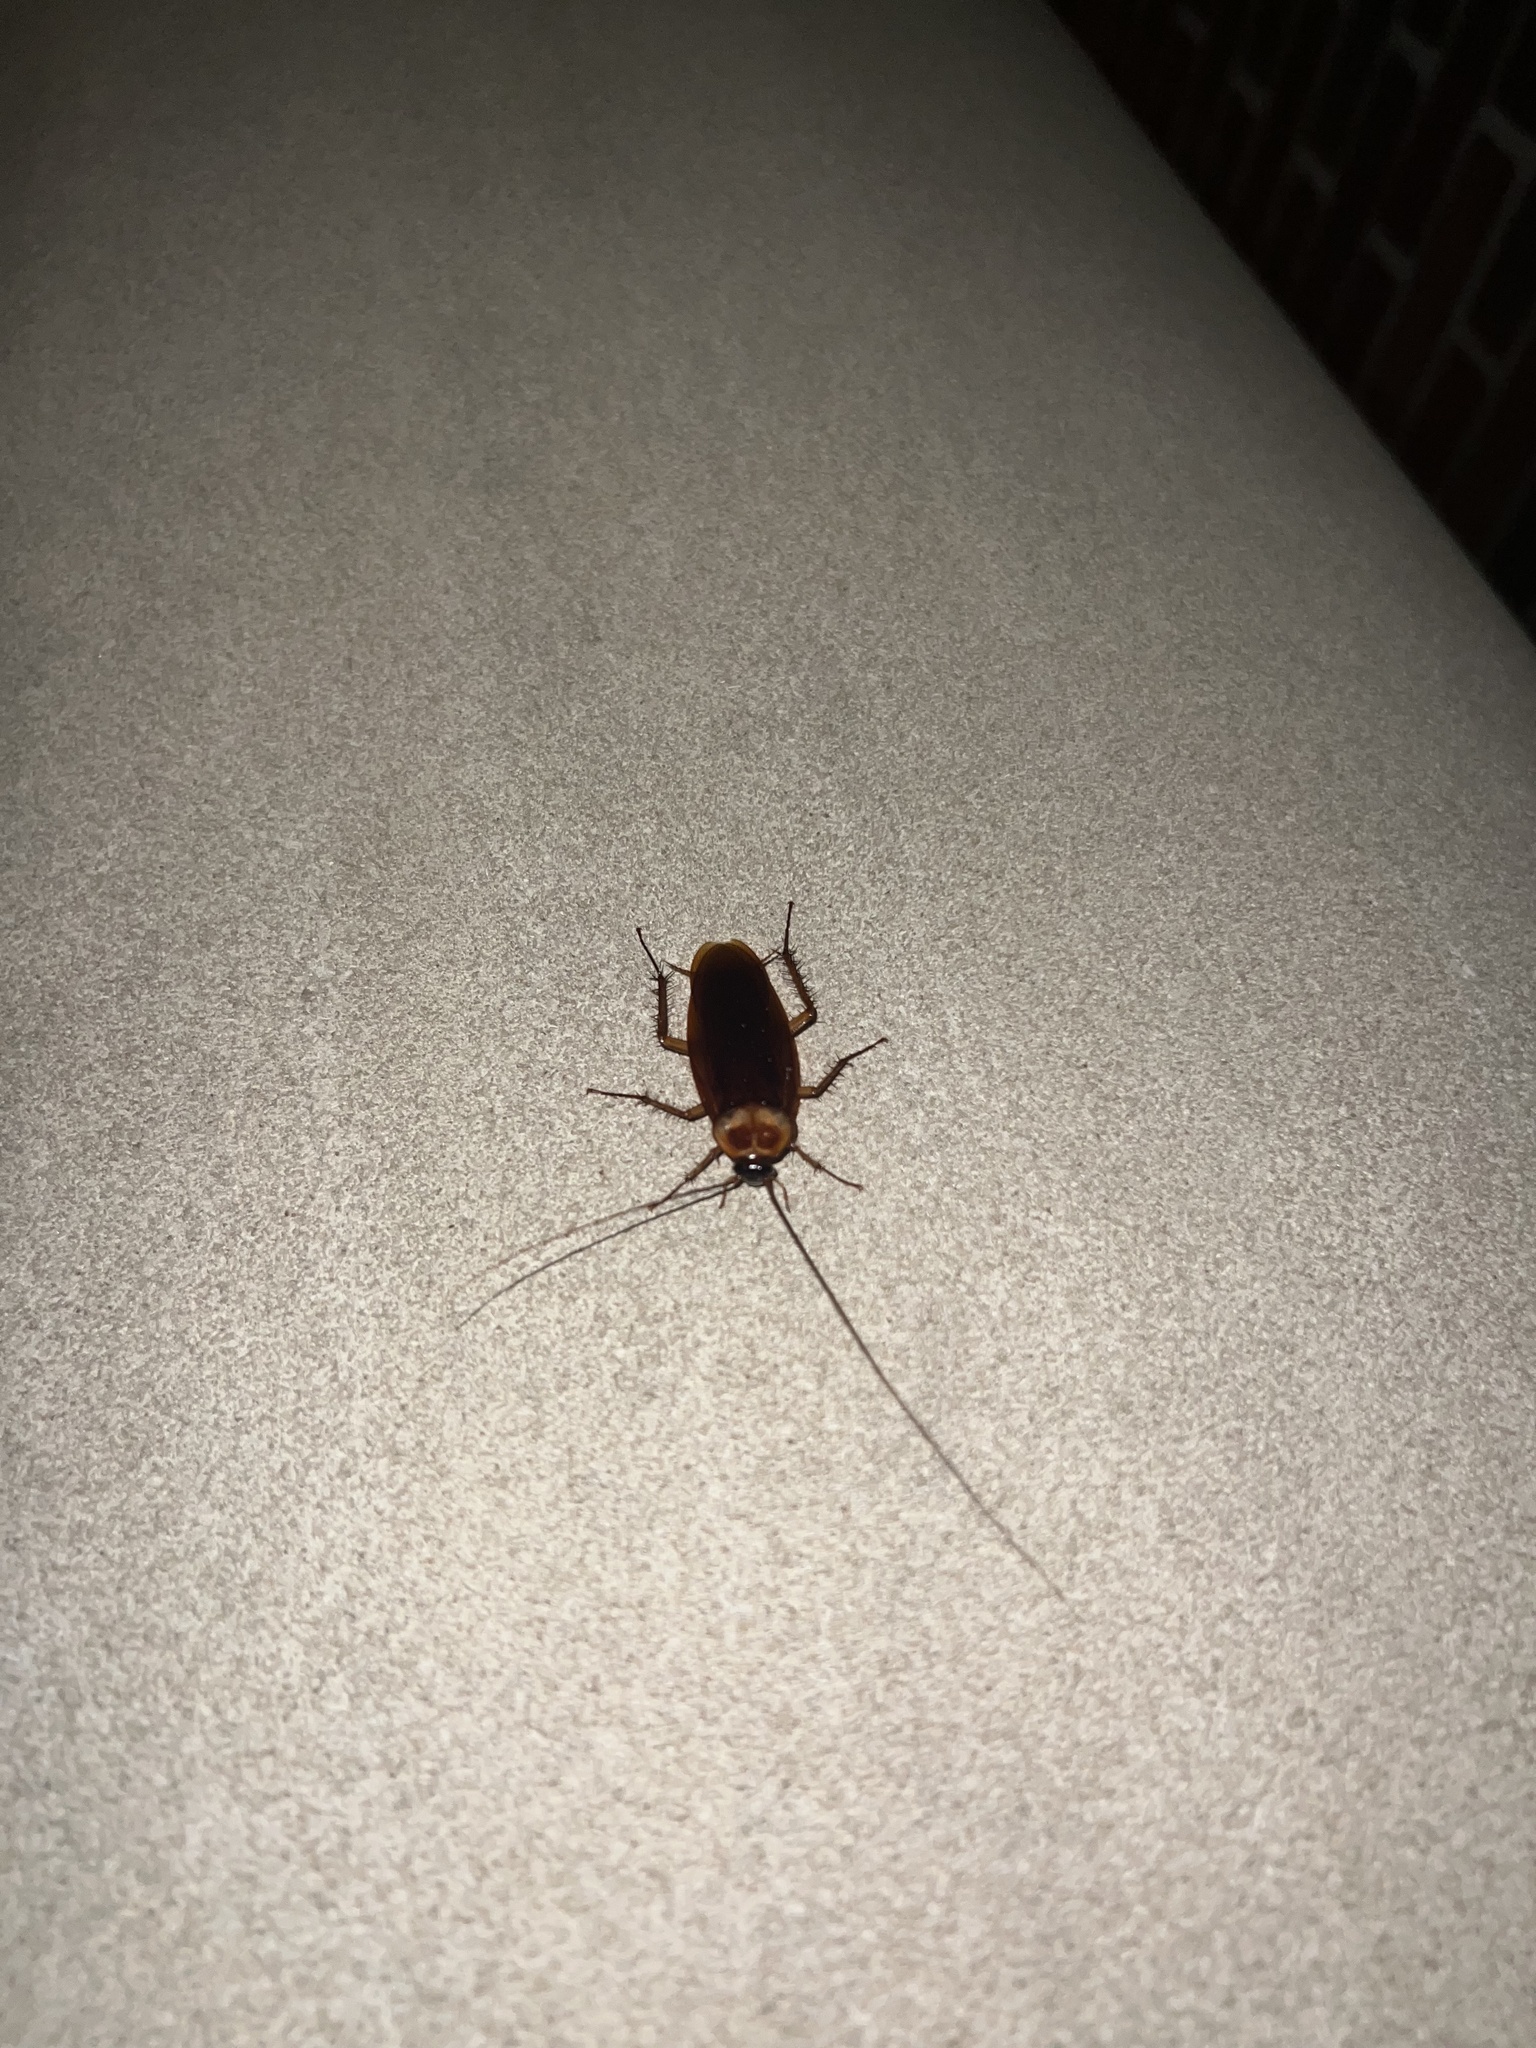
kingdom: Animalia
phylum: Arthropoda
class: Insecta
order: Blattodea
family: Blattidae
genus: Periplaneta
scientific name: Periplaneta americana
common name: American cockroach
